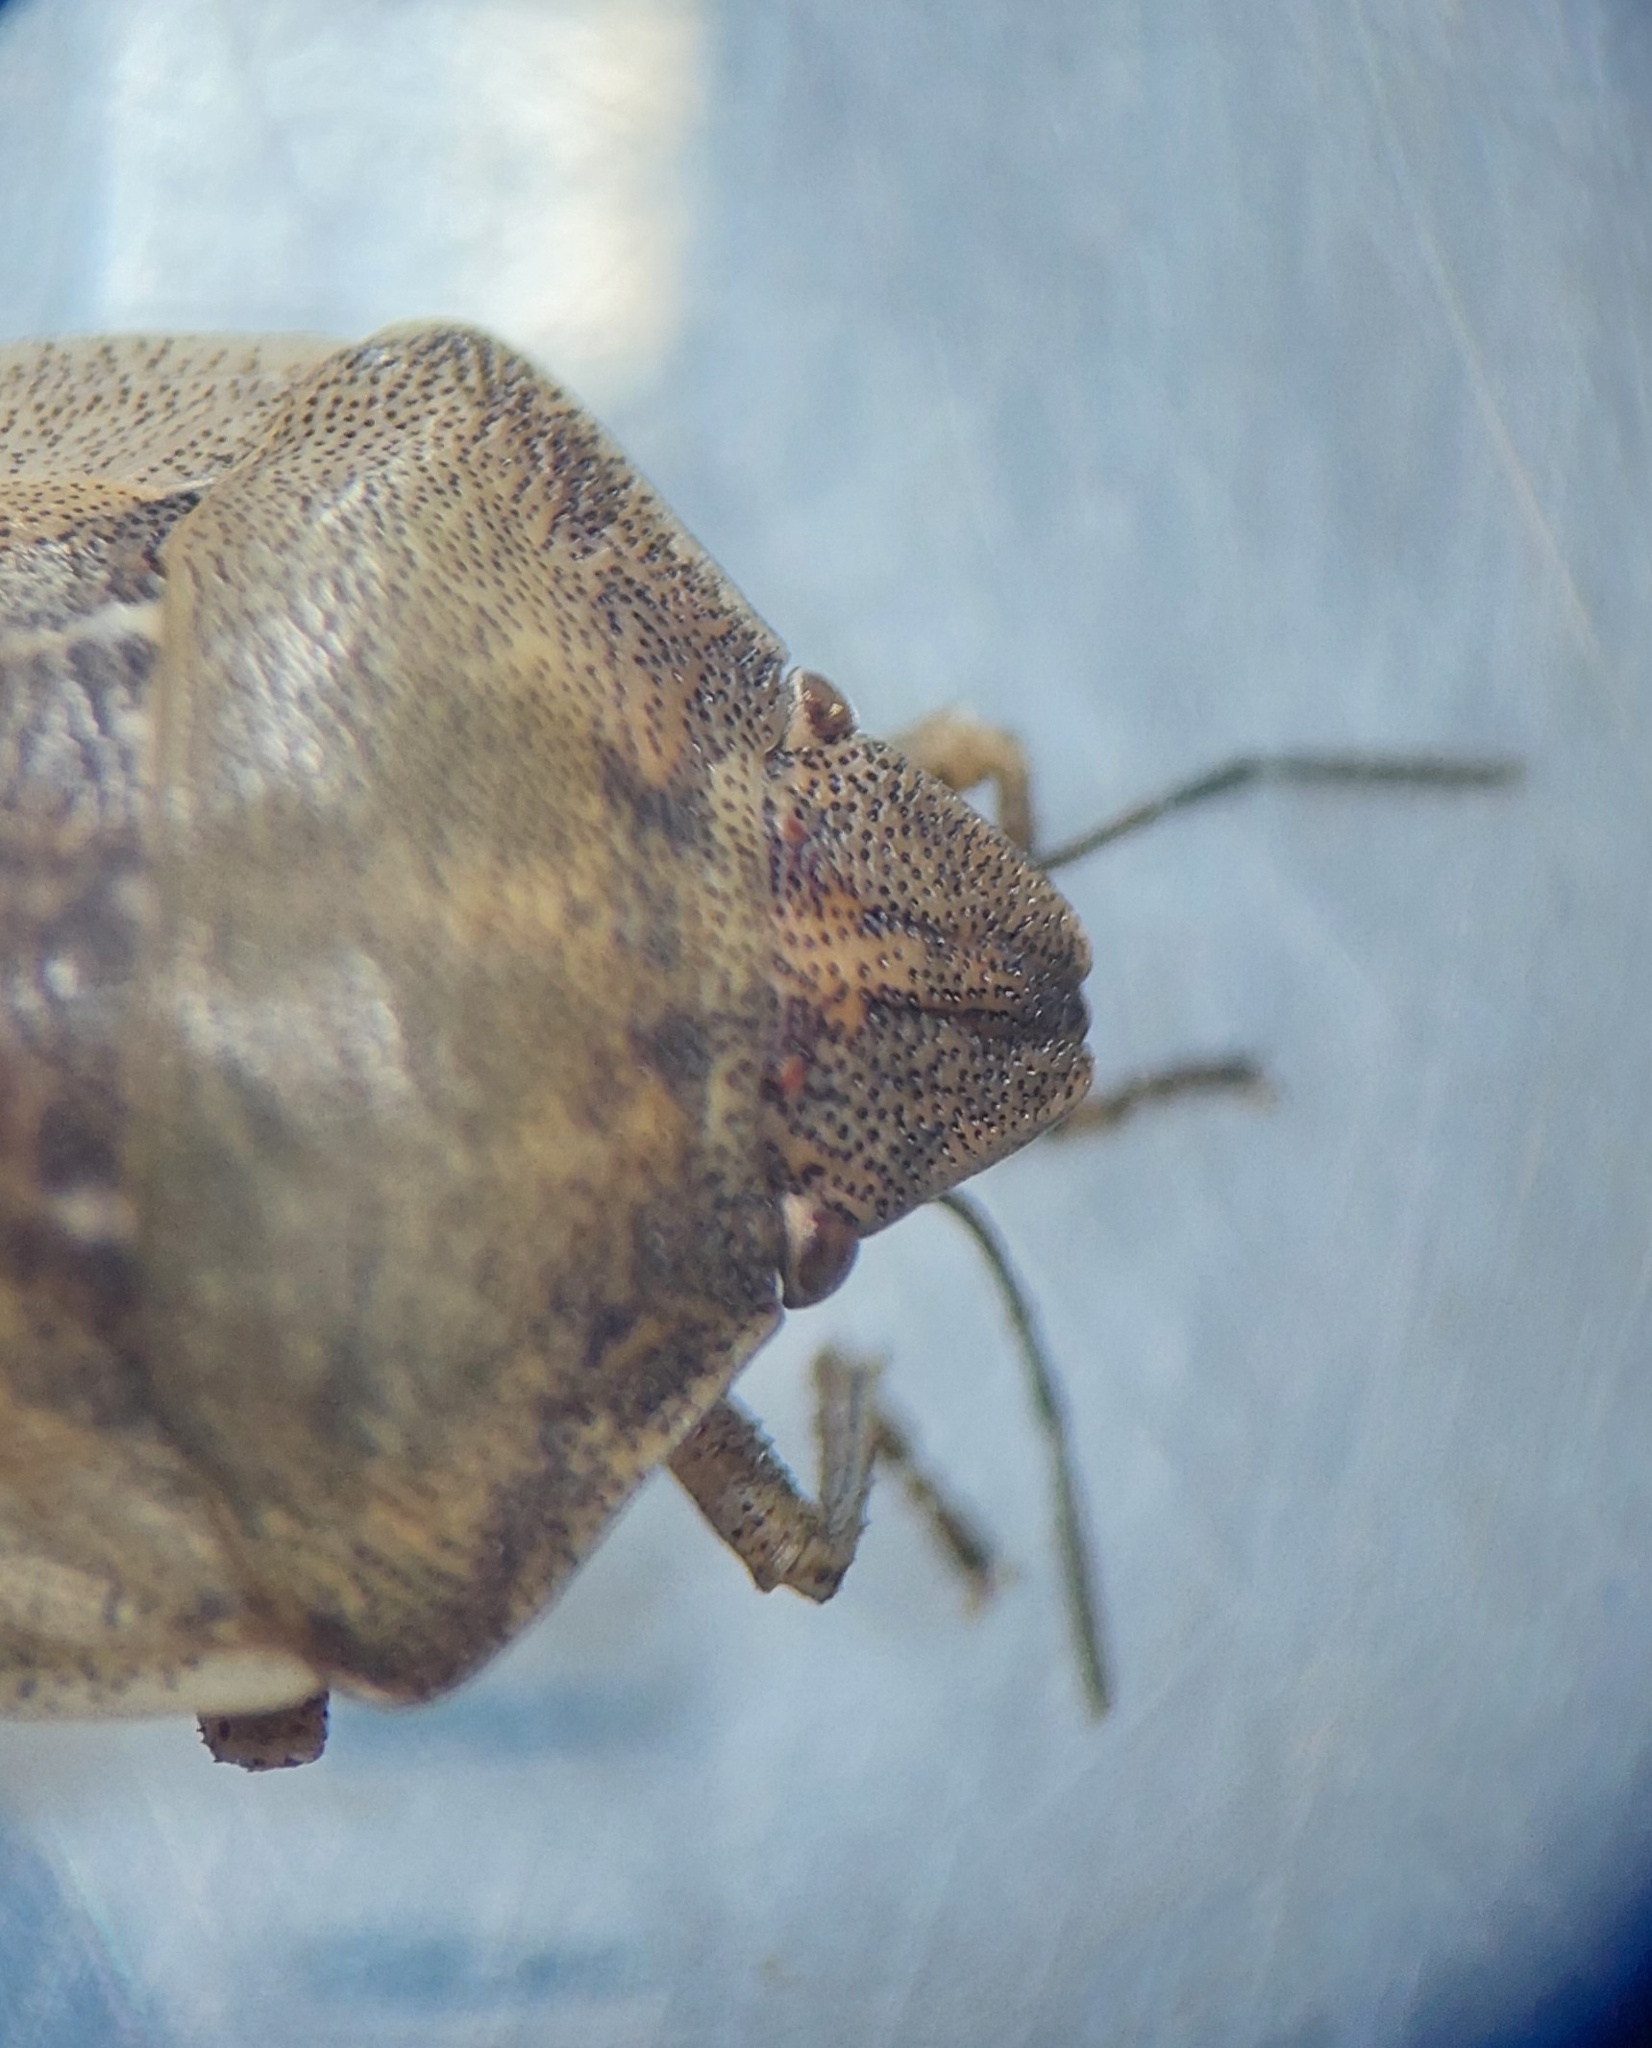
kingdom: Animalia
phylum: Arthropoda
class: Insecta
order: Hemiptera
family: Scutelleridae
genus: Eurygaster
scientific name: Eurygaster testudinaria
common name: Tortoise bug
